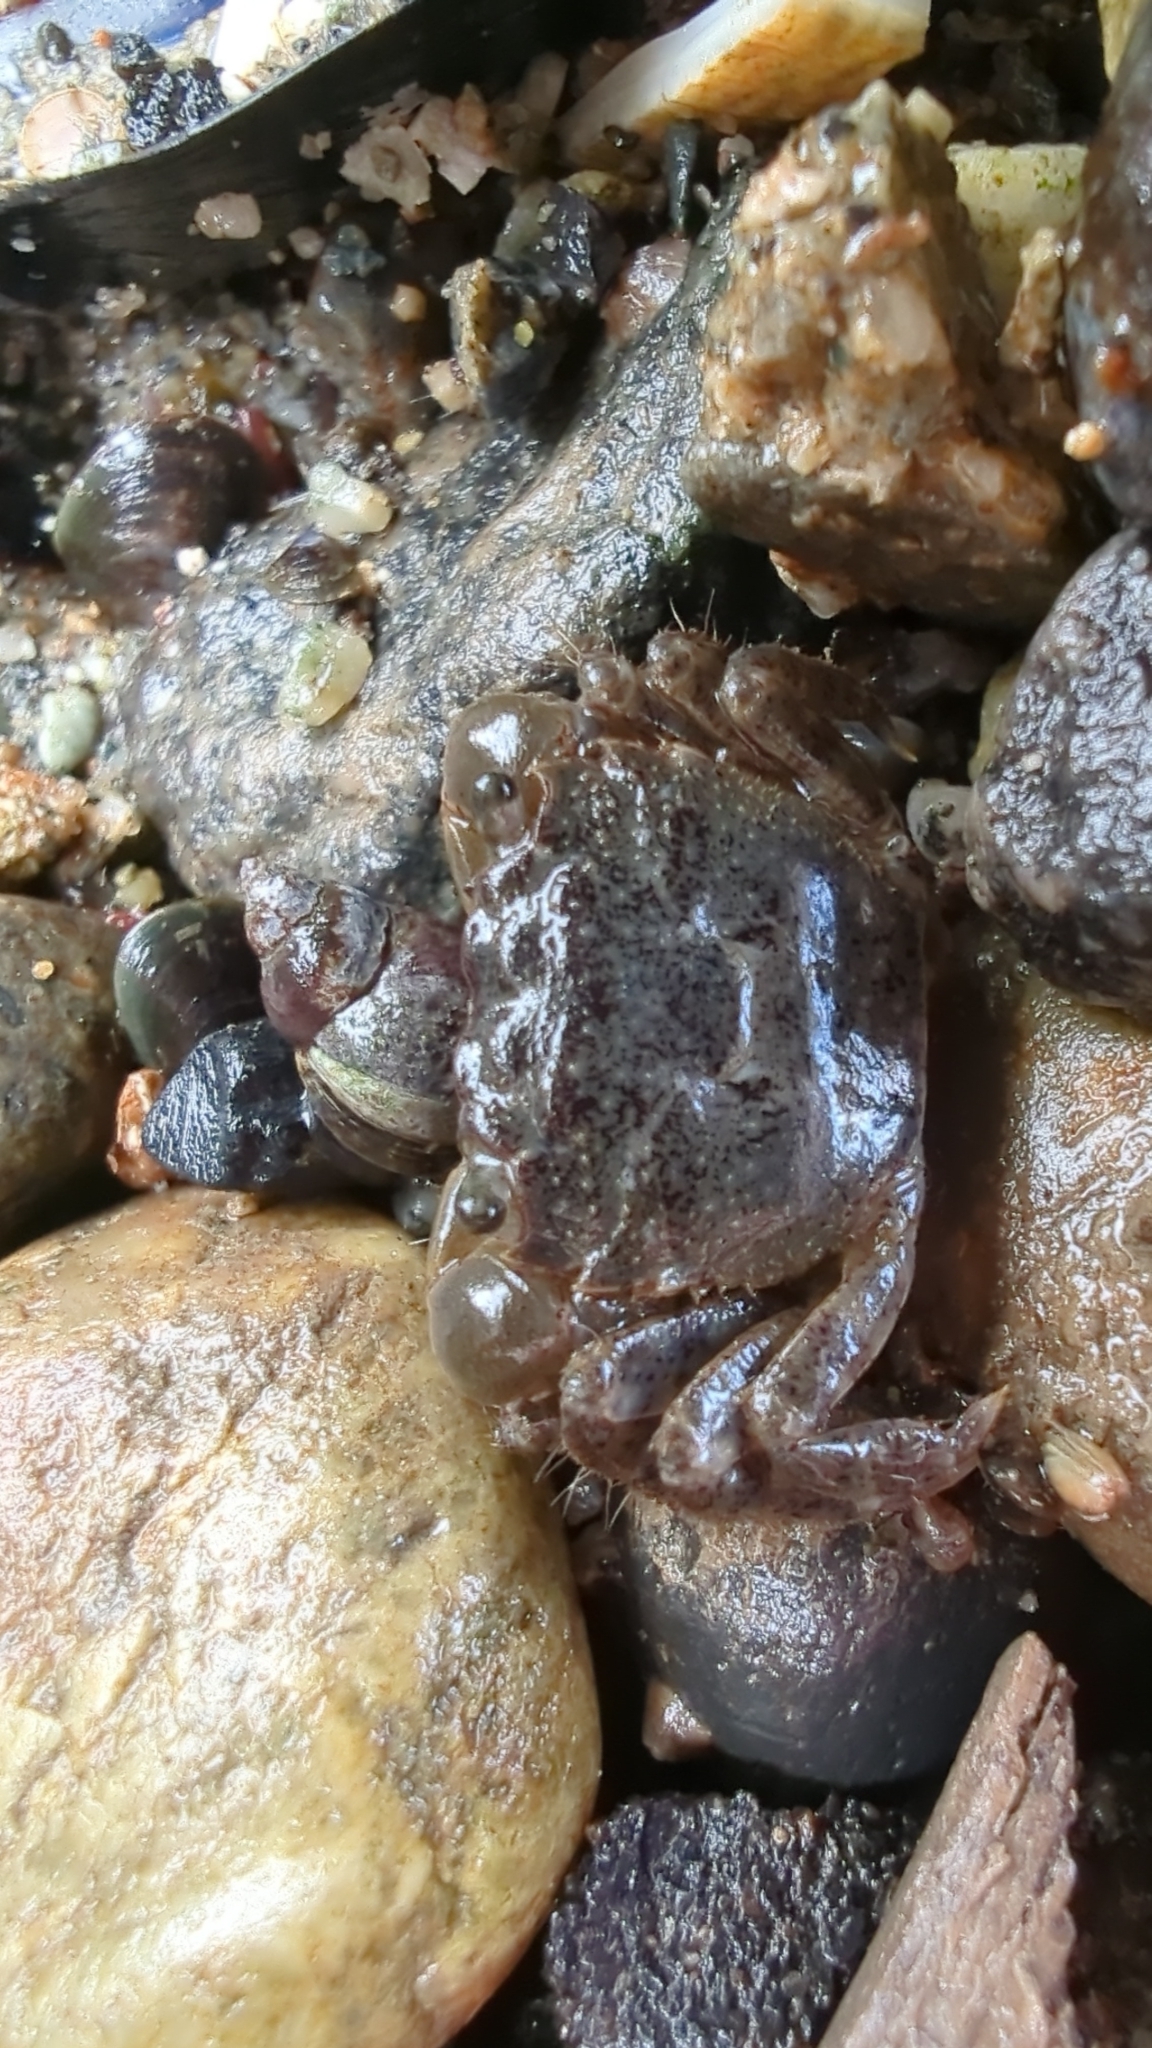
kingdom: Animalia
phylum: Arthropoda
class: Malacostraca
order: Decapoda
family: Varunidae
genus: Hemigrapsus
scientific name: Hemigrapsus oregonensis
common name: Yellow shore crab
